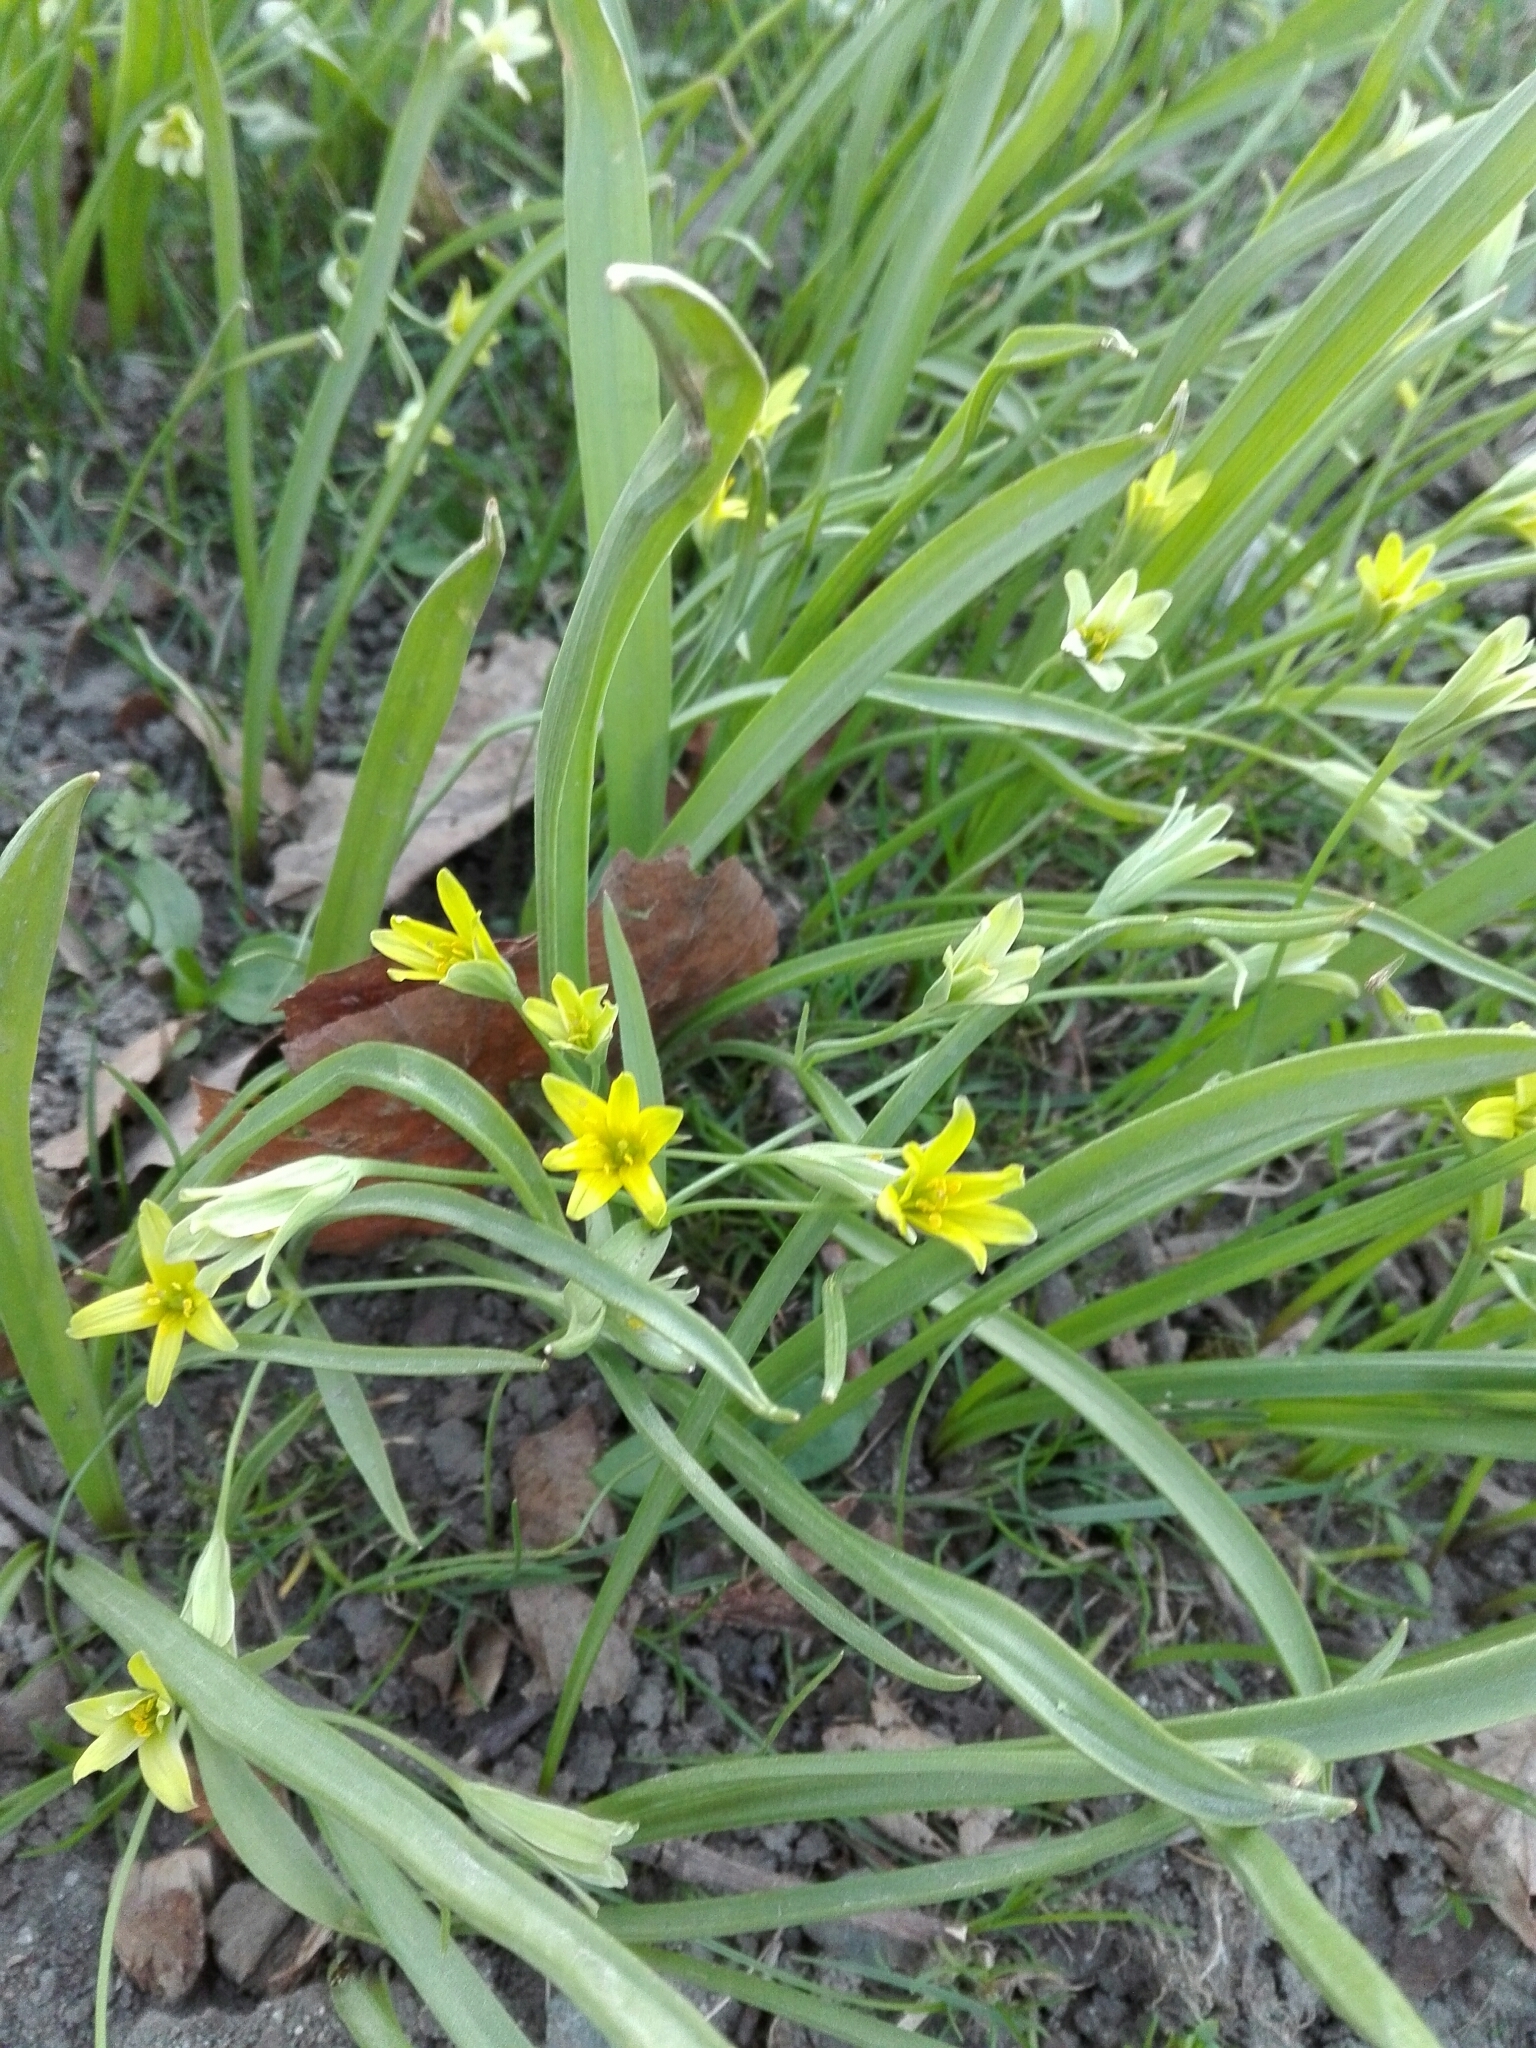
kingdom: Plantae
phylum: Tracheophyta
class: Liliopsida
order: Liliales
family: Liliaceae
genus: Gagea
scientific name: Gagea lutea
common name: Yellow star-of-bethlehem
